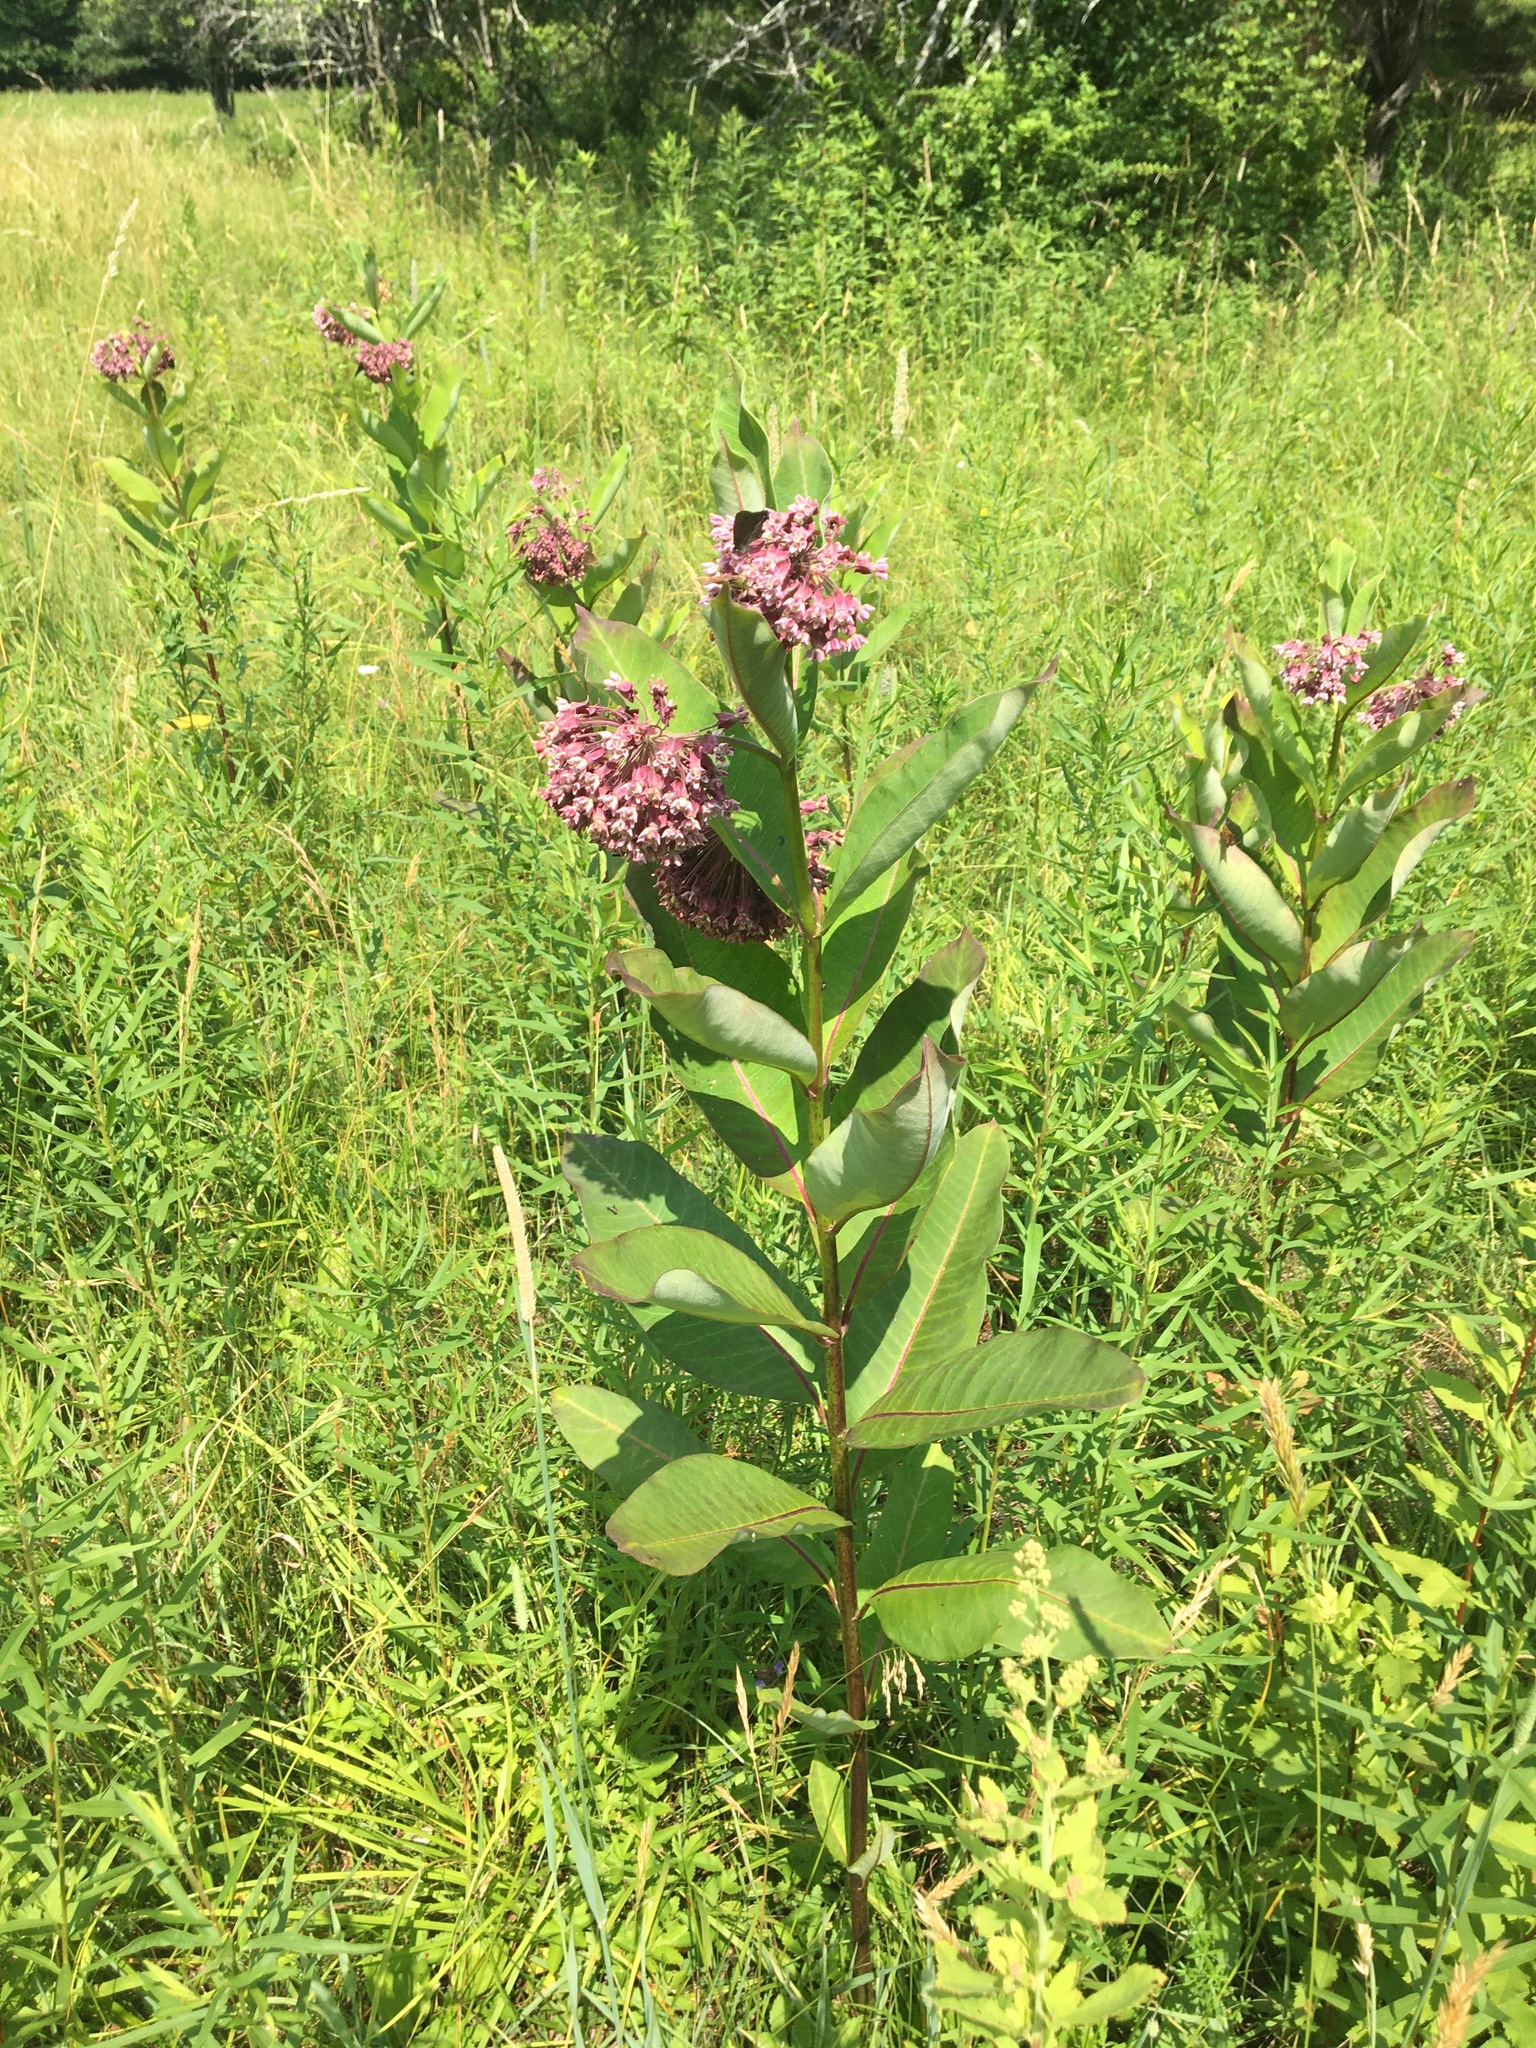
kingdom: Plantae
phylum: Tracheophyta
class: Magnoliopsida
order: Gentianales
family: Apocynaceae
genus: Asclepias
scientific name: Asclepias syriaca
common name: Common milkweed
